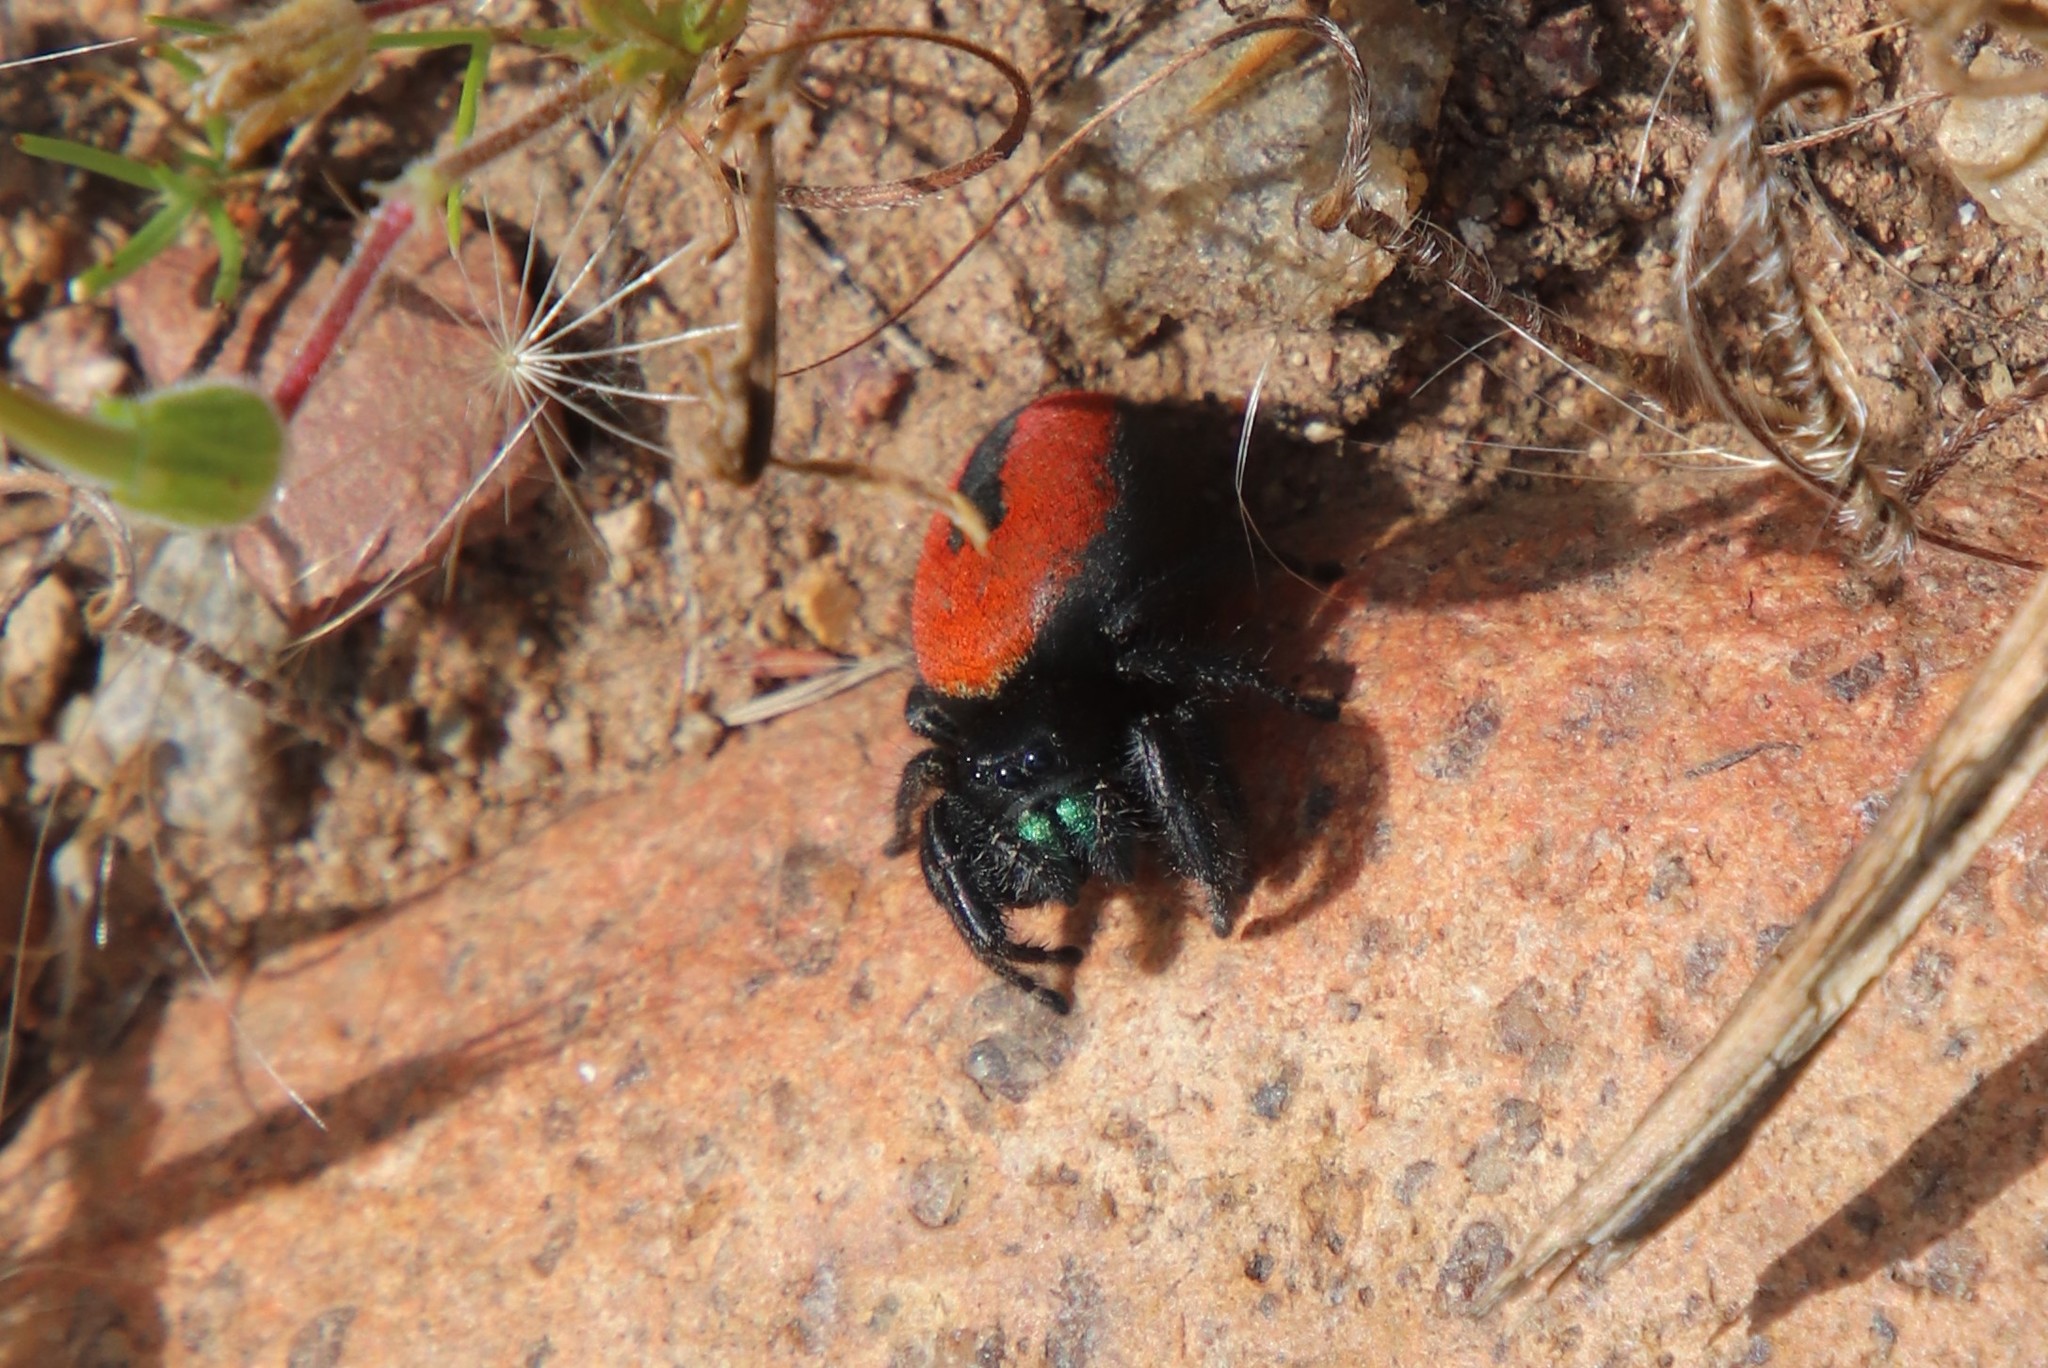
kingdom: Animalia
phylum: Arthropoda
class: Arachnida
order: Araneae
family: Salticidae
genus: Phidippus
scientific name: Phidippus johnsoni
